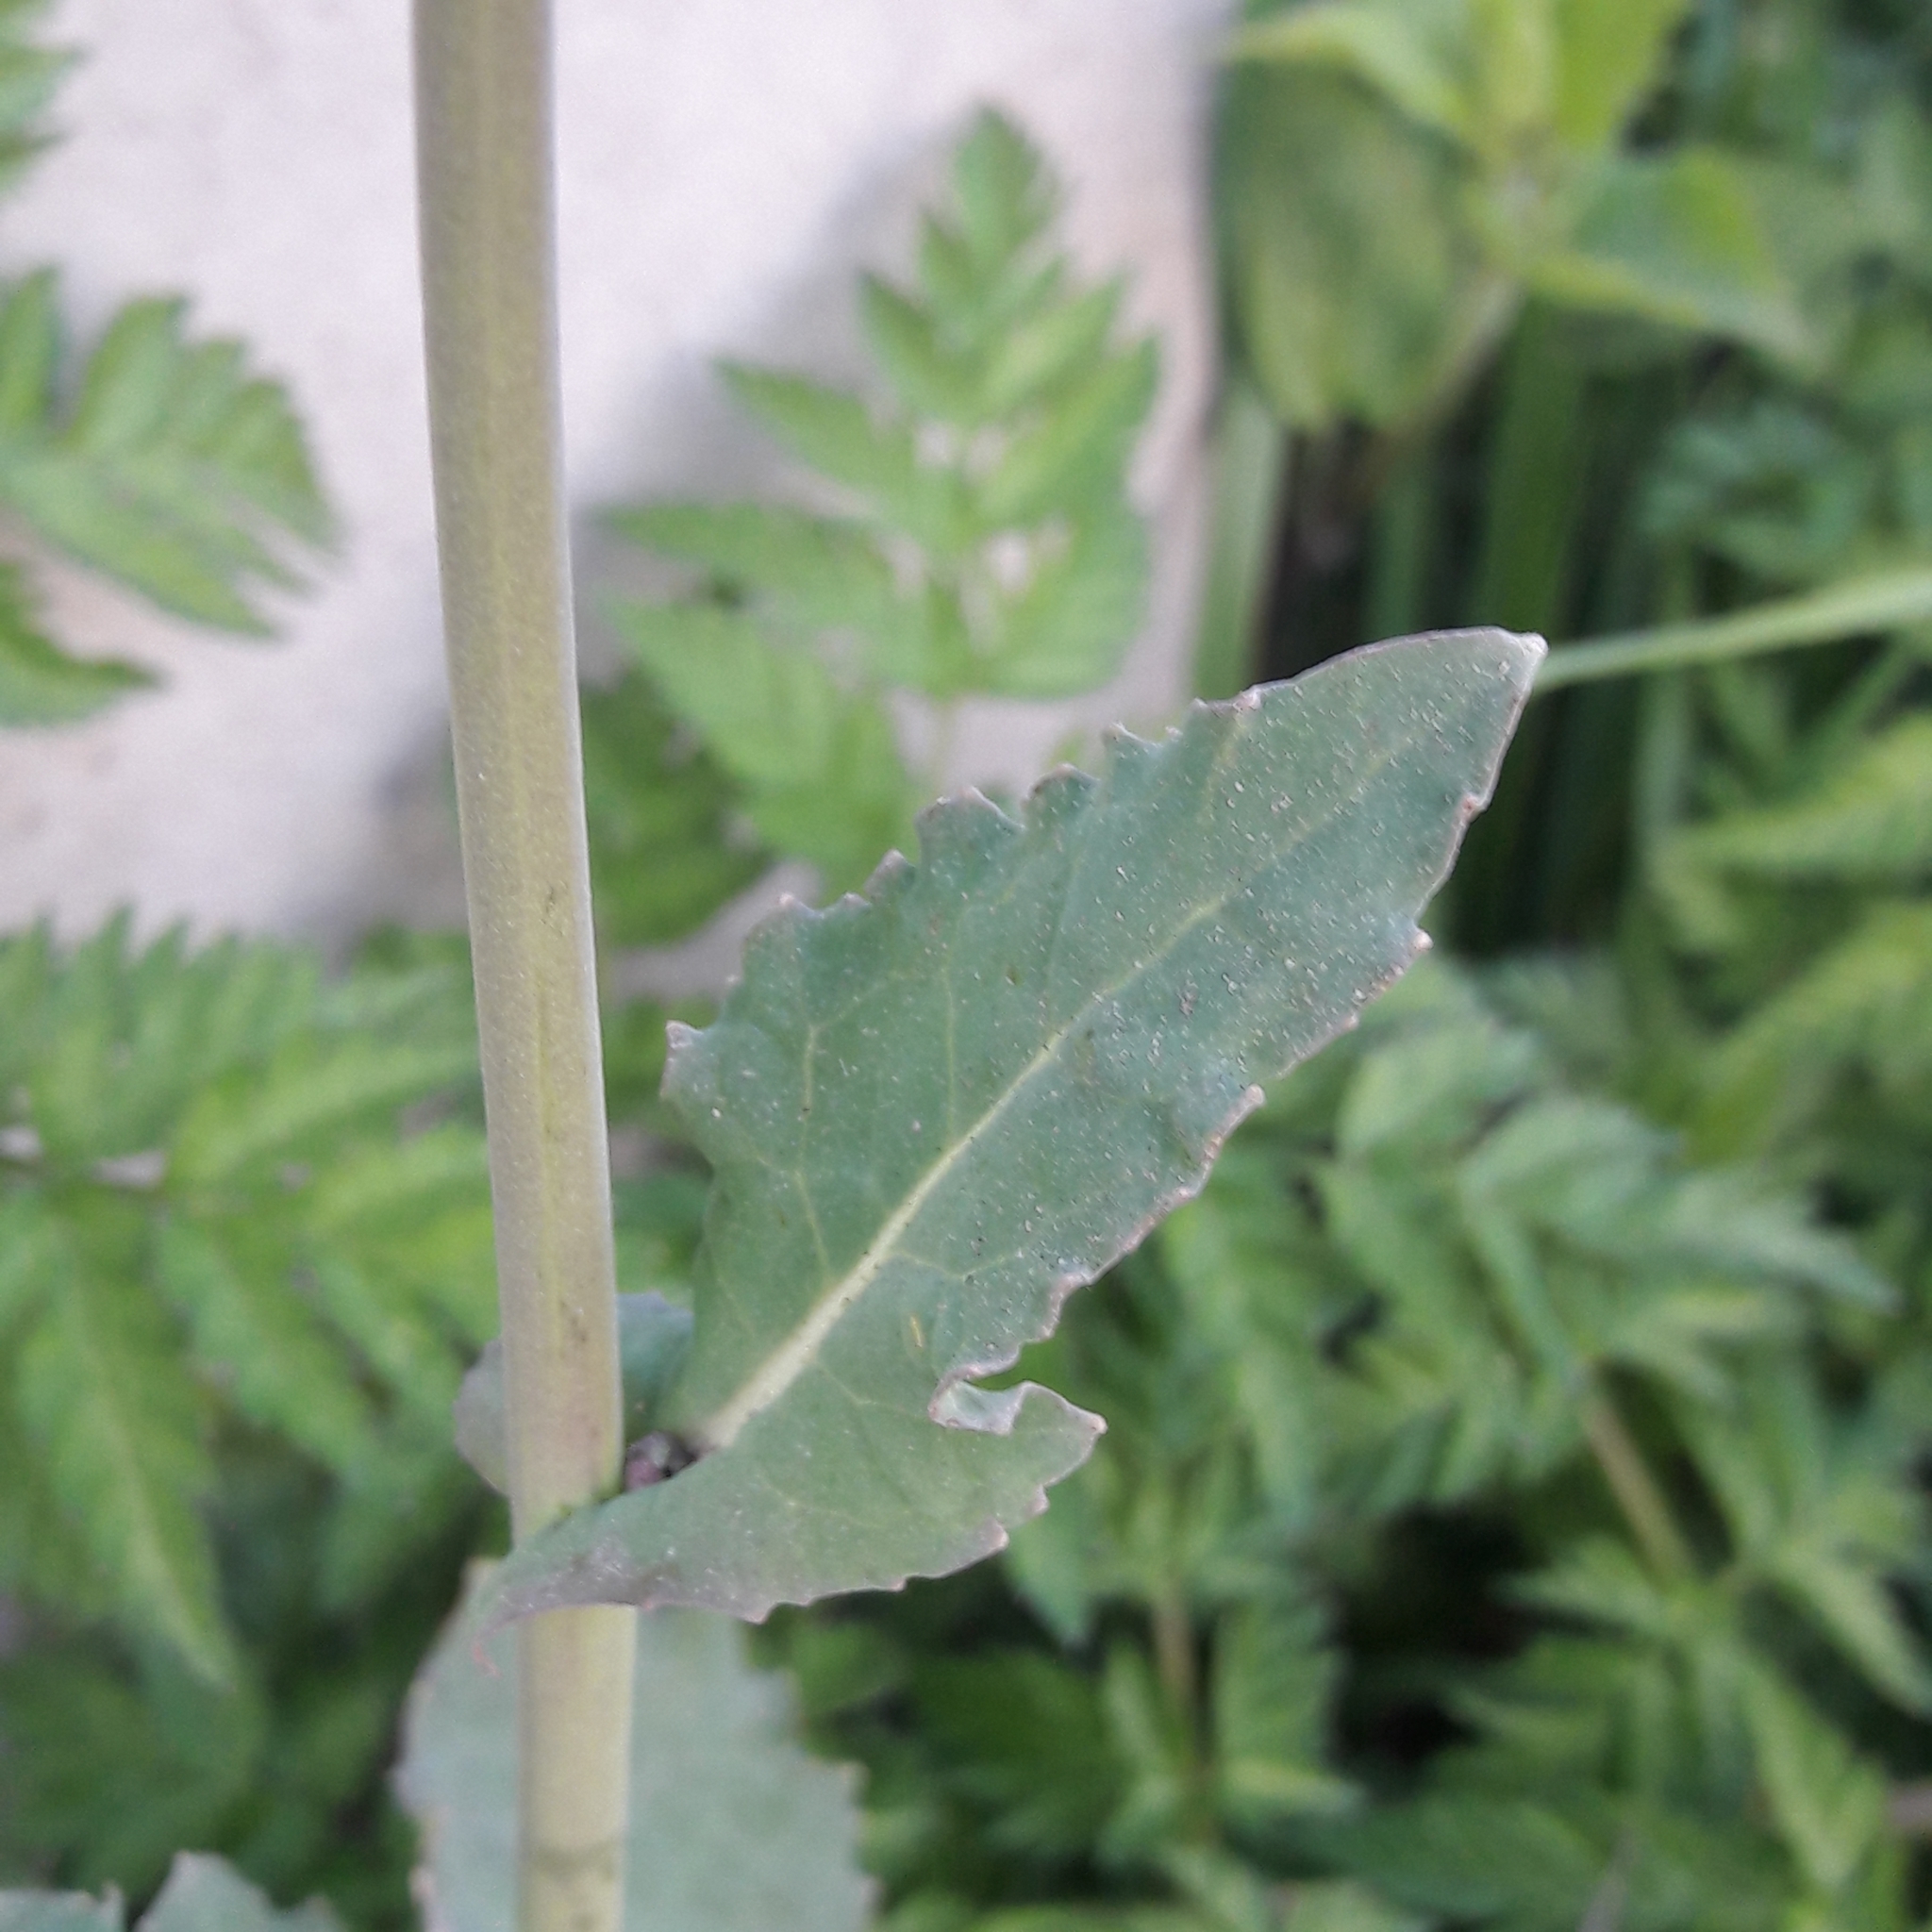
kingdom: Plantae
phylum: Tracheophyta
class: Magnoliopsida
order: Brassicales
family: Brassicaceae
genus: Brassica
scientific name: Brassica rapa
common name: Field mustard
